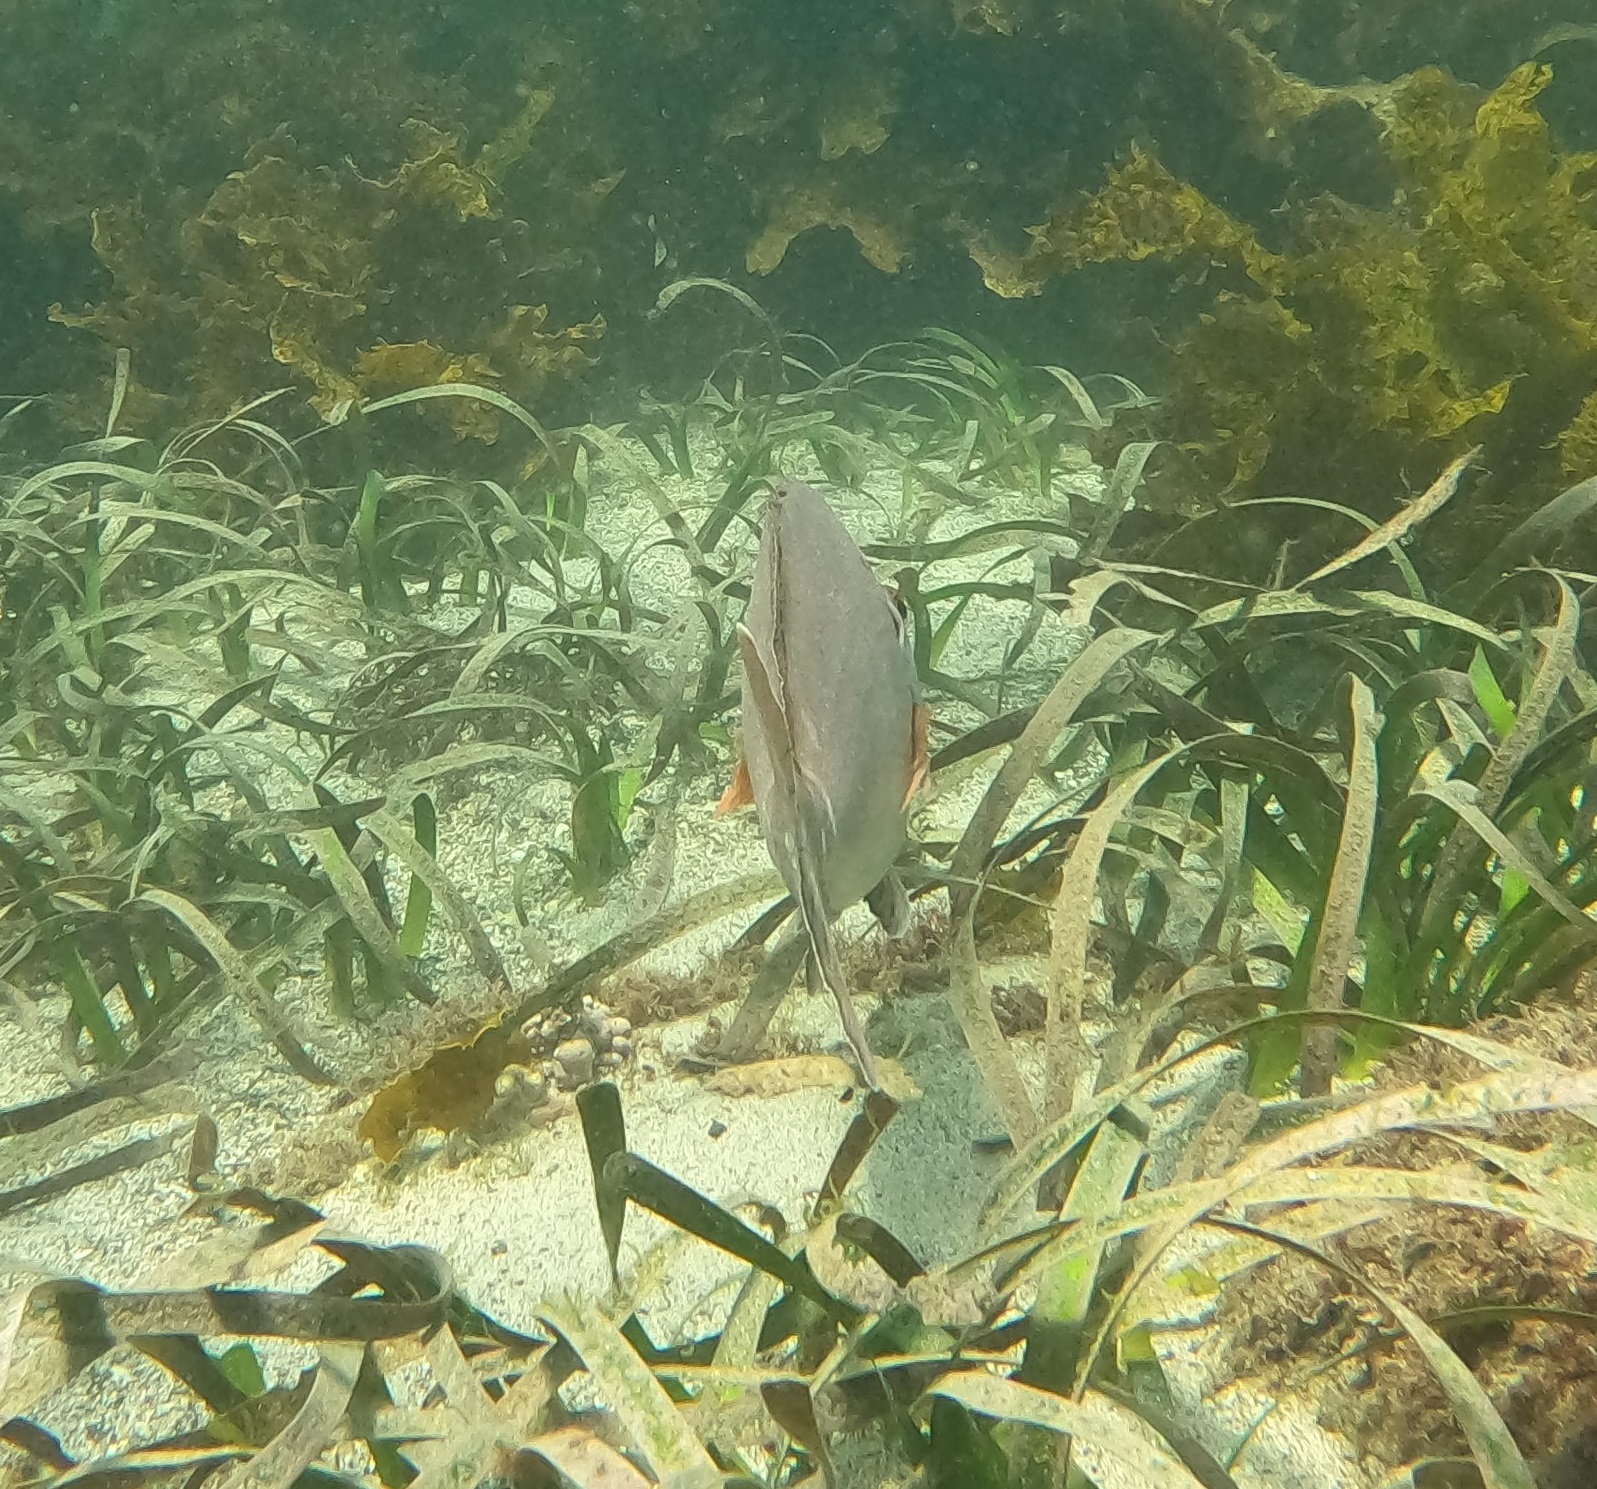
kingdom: Animalia
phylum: Chordata
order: Perciformes
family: Latridae
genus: Morwong
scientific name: Morwong fuscus
